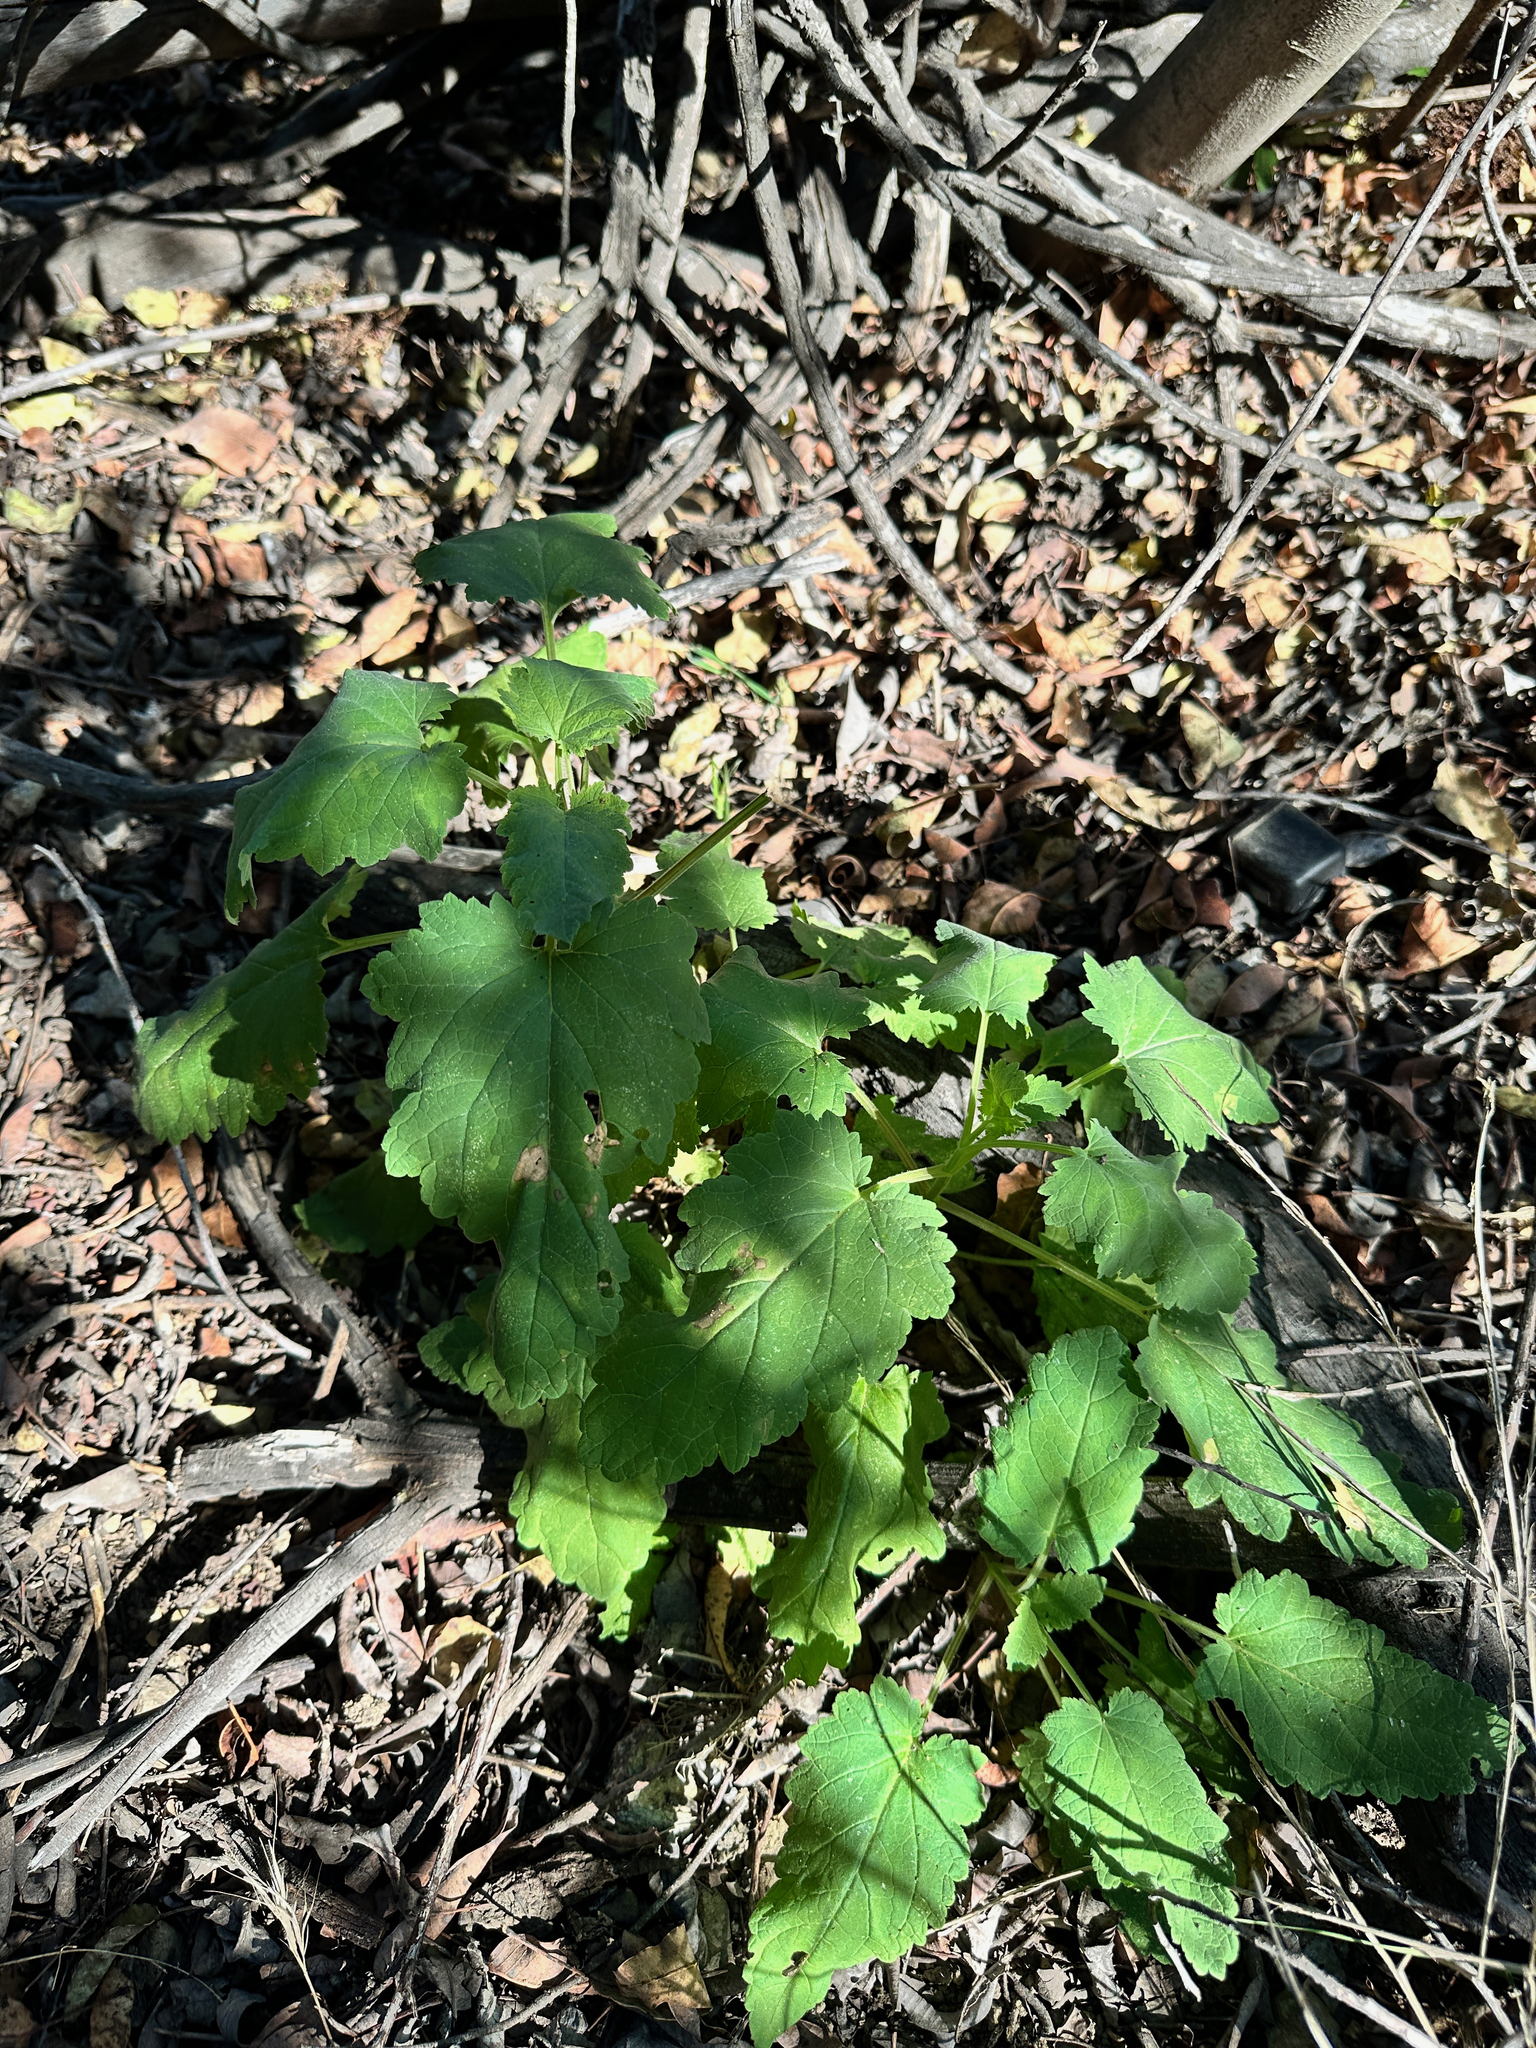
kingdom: Plantae
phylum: Tracheophyta
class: Magnoliopsida
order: Lamiales
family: Scrophulariaceae
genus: Scrophularia
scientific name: Scrophularia californica
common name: California figwort
